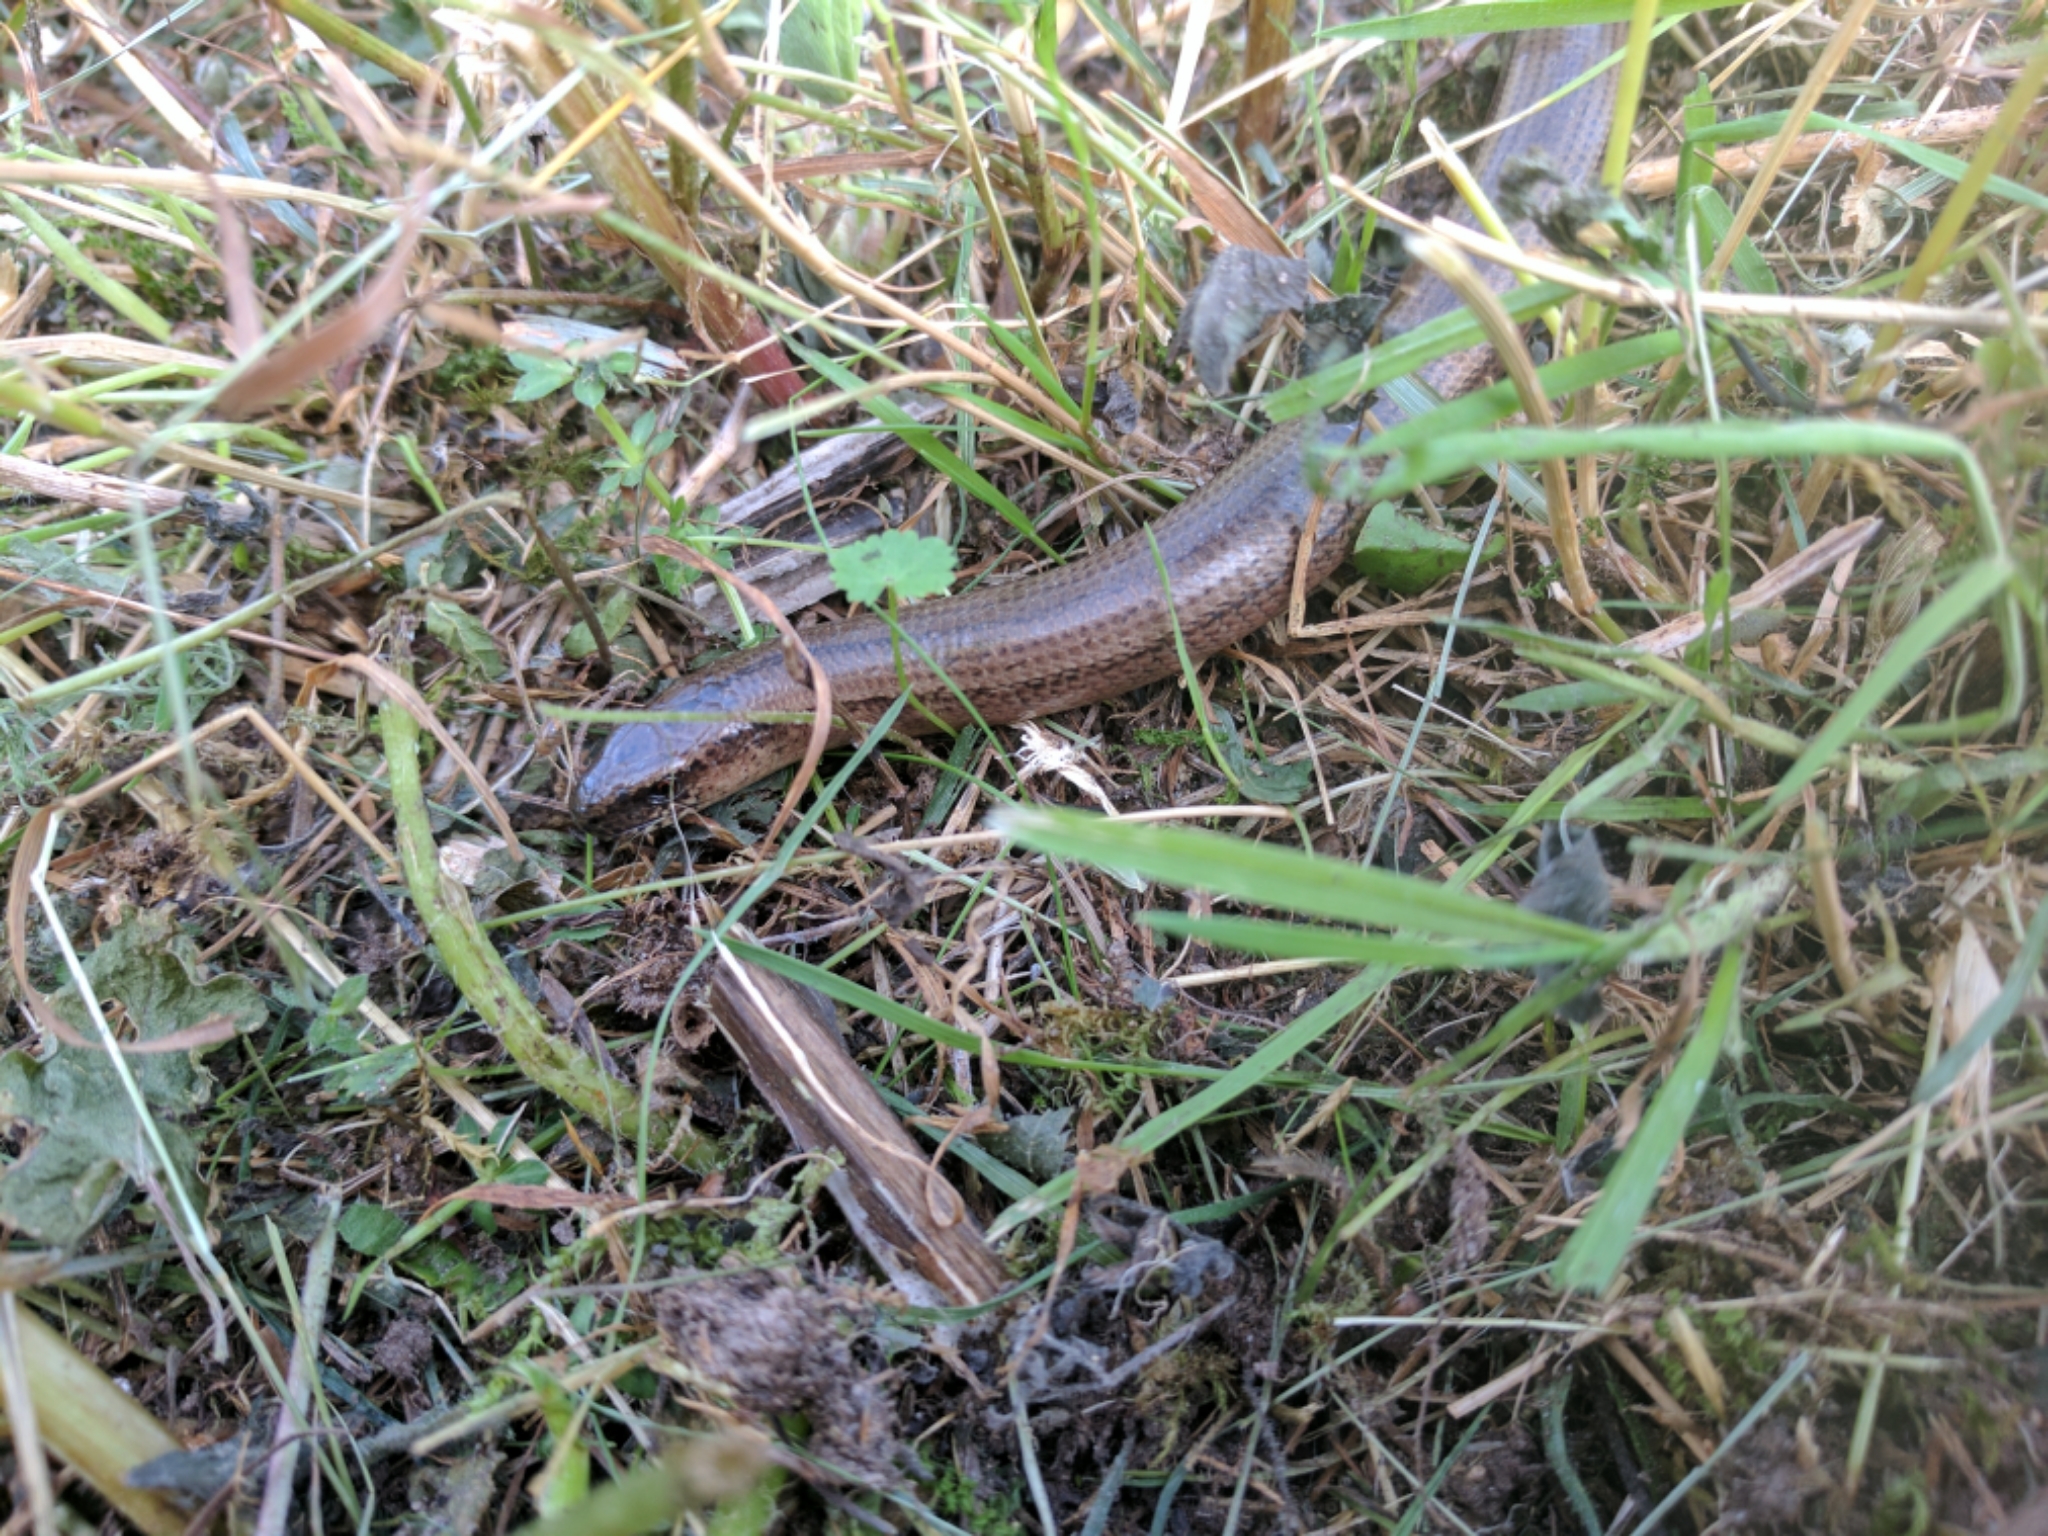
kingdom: Animalia
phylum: Chordata
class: Squamata
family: Anguidae
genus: Anguis
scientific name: Anguis fragilis
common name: Slow worm
